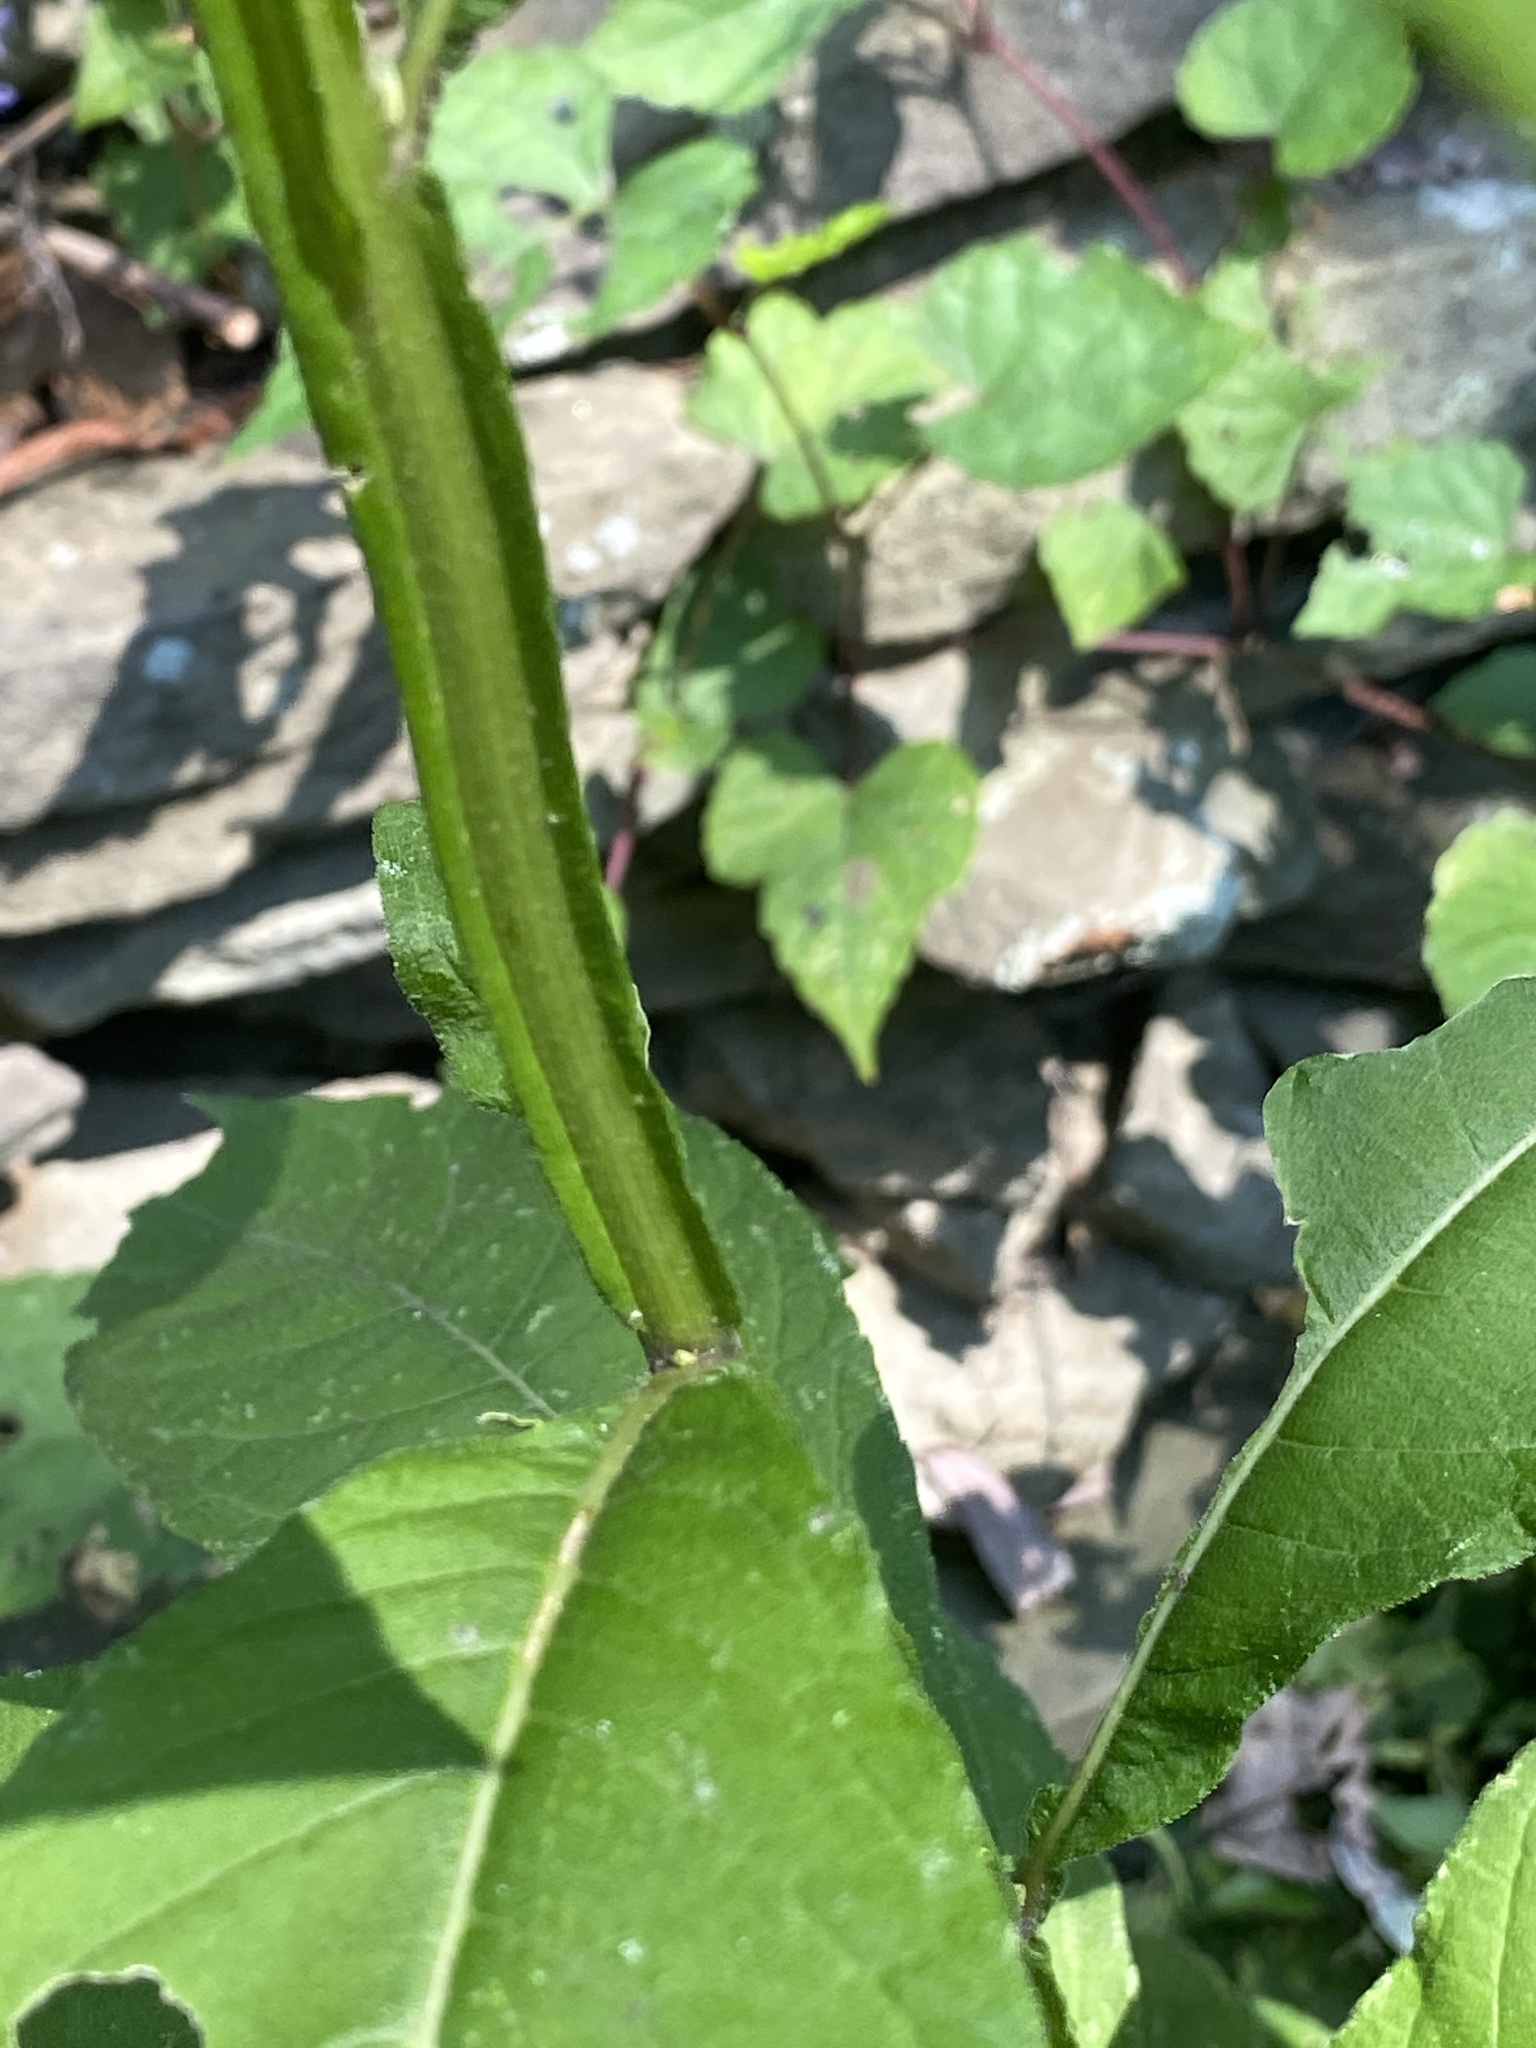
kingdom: Plantae
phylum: Tracheophyta
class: Magnoliopsida
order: Asterales
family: Asteraceae
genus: Verbesina
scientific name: Verbesina alternifolia
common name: Wingstem
